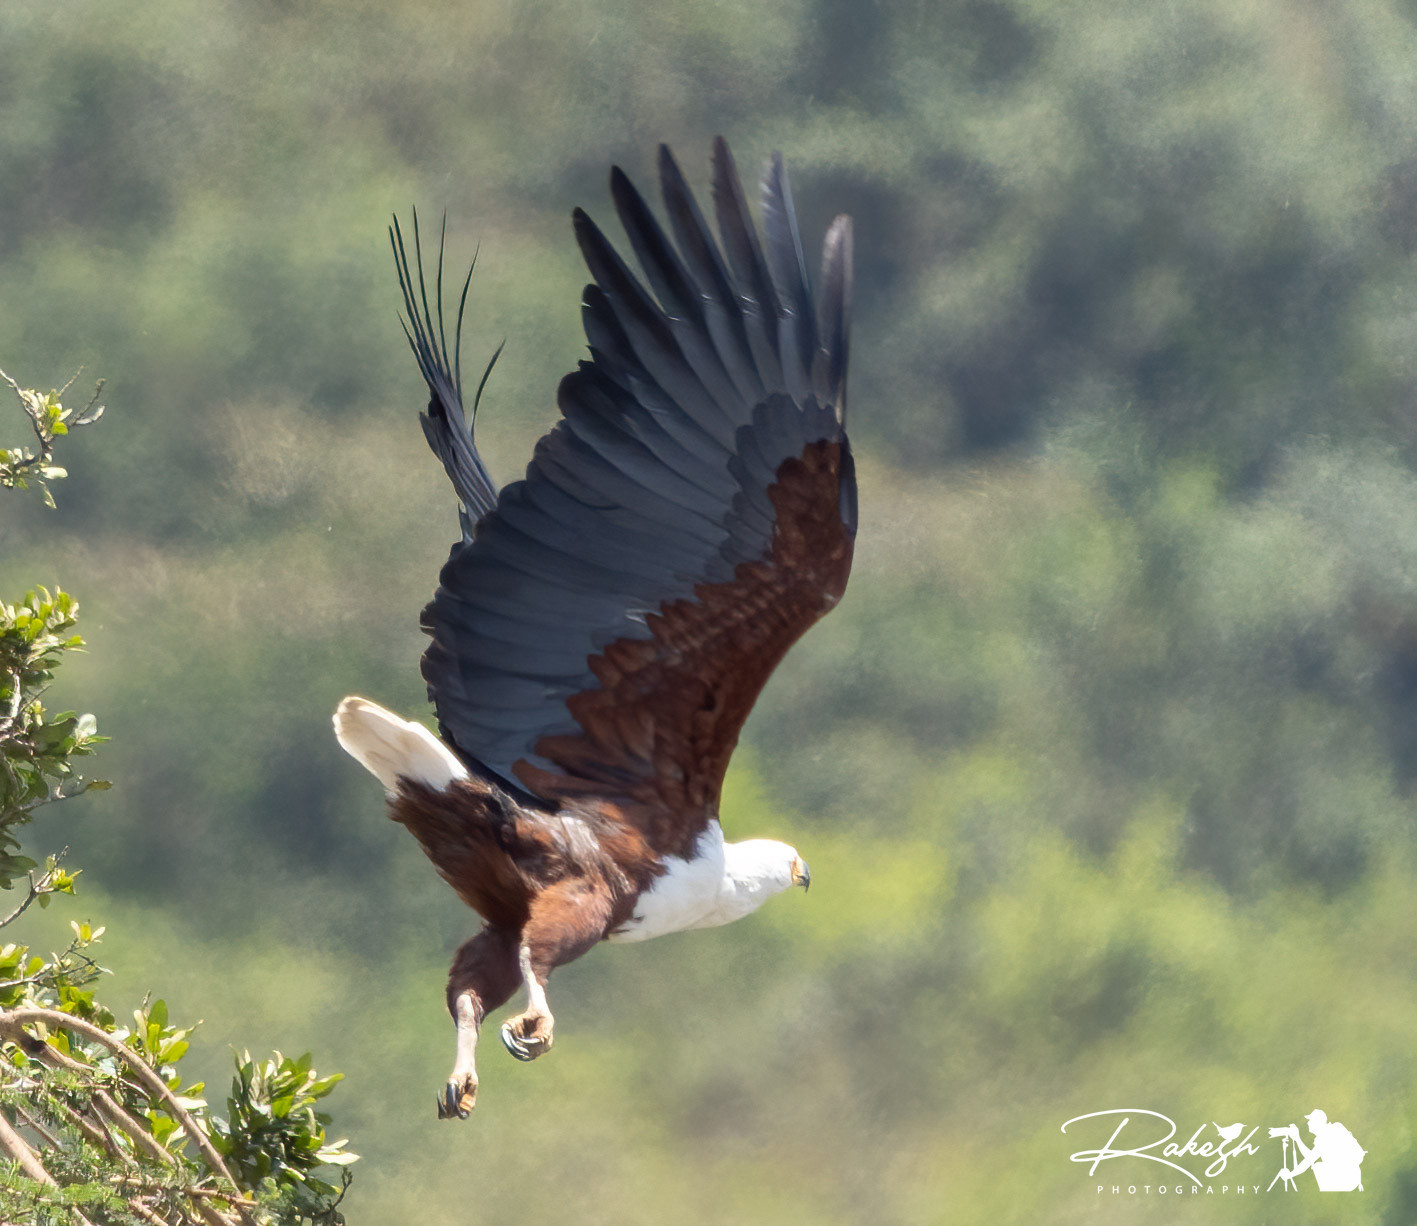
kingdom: Animalia
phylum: Chordata
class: Aves
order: Accipitriformes
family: Accipitridae
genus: Haliaeetus
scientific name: Haliaeetus vocifer
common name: African fish eagle
